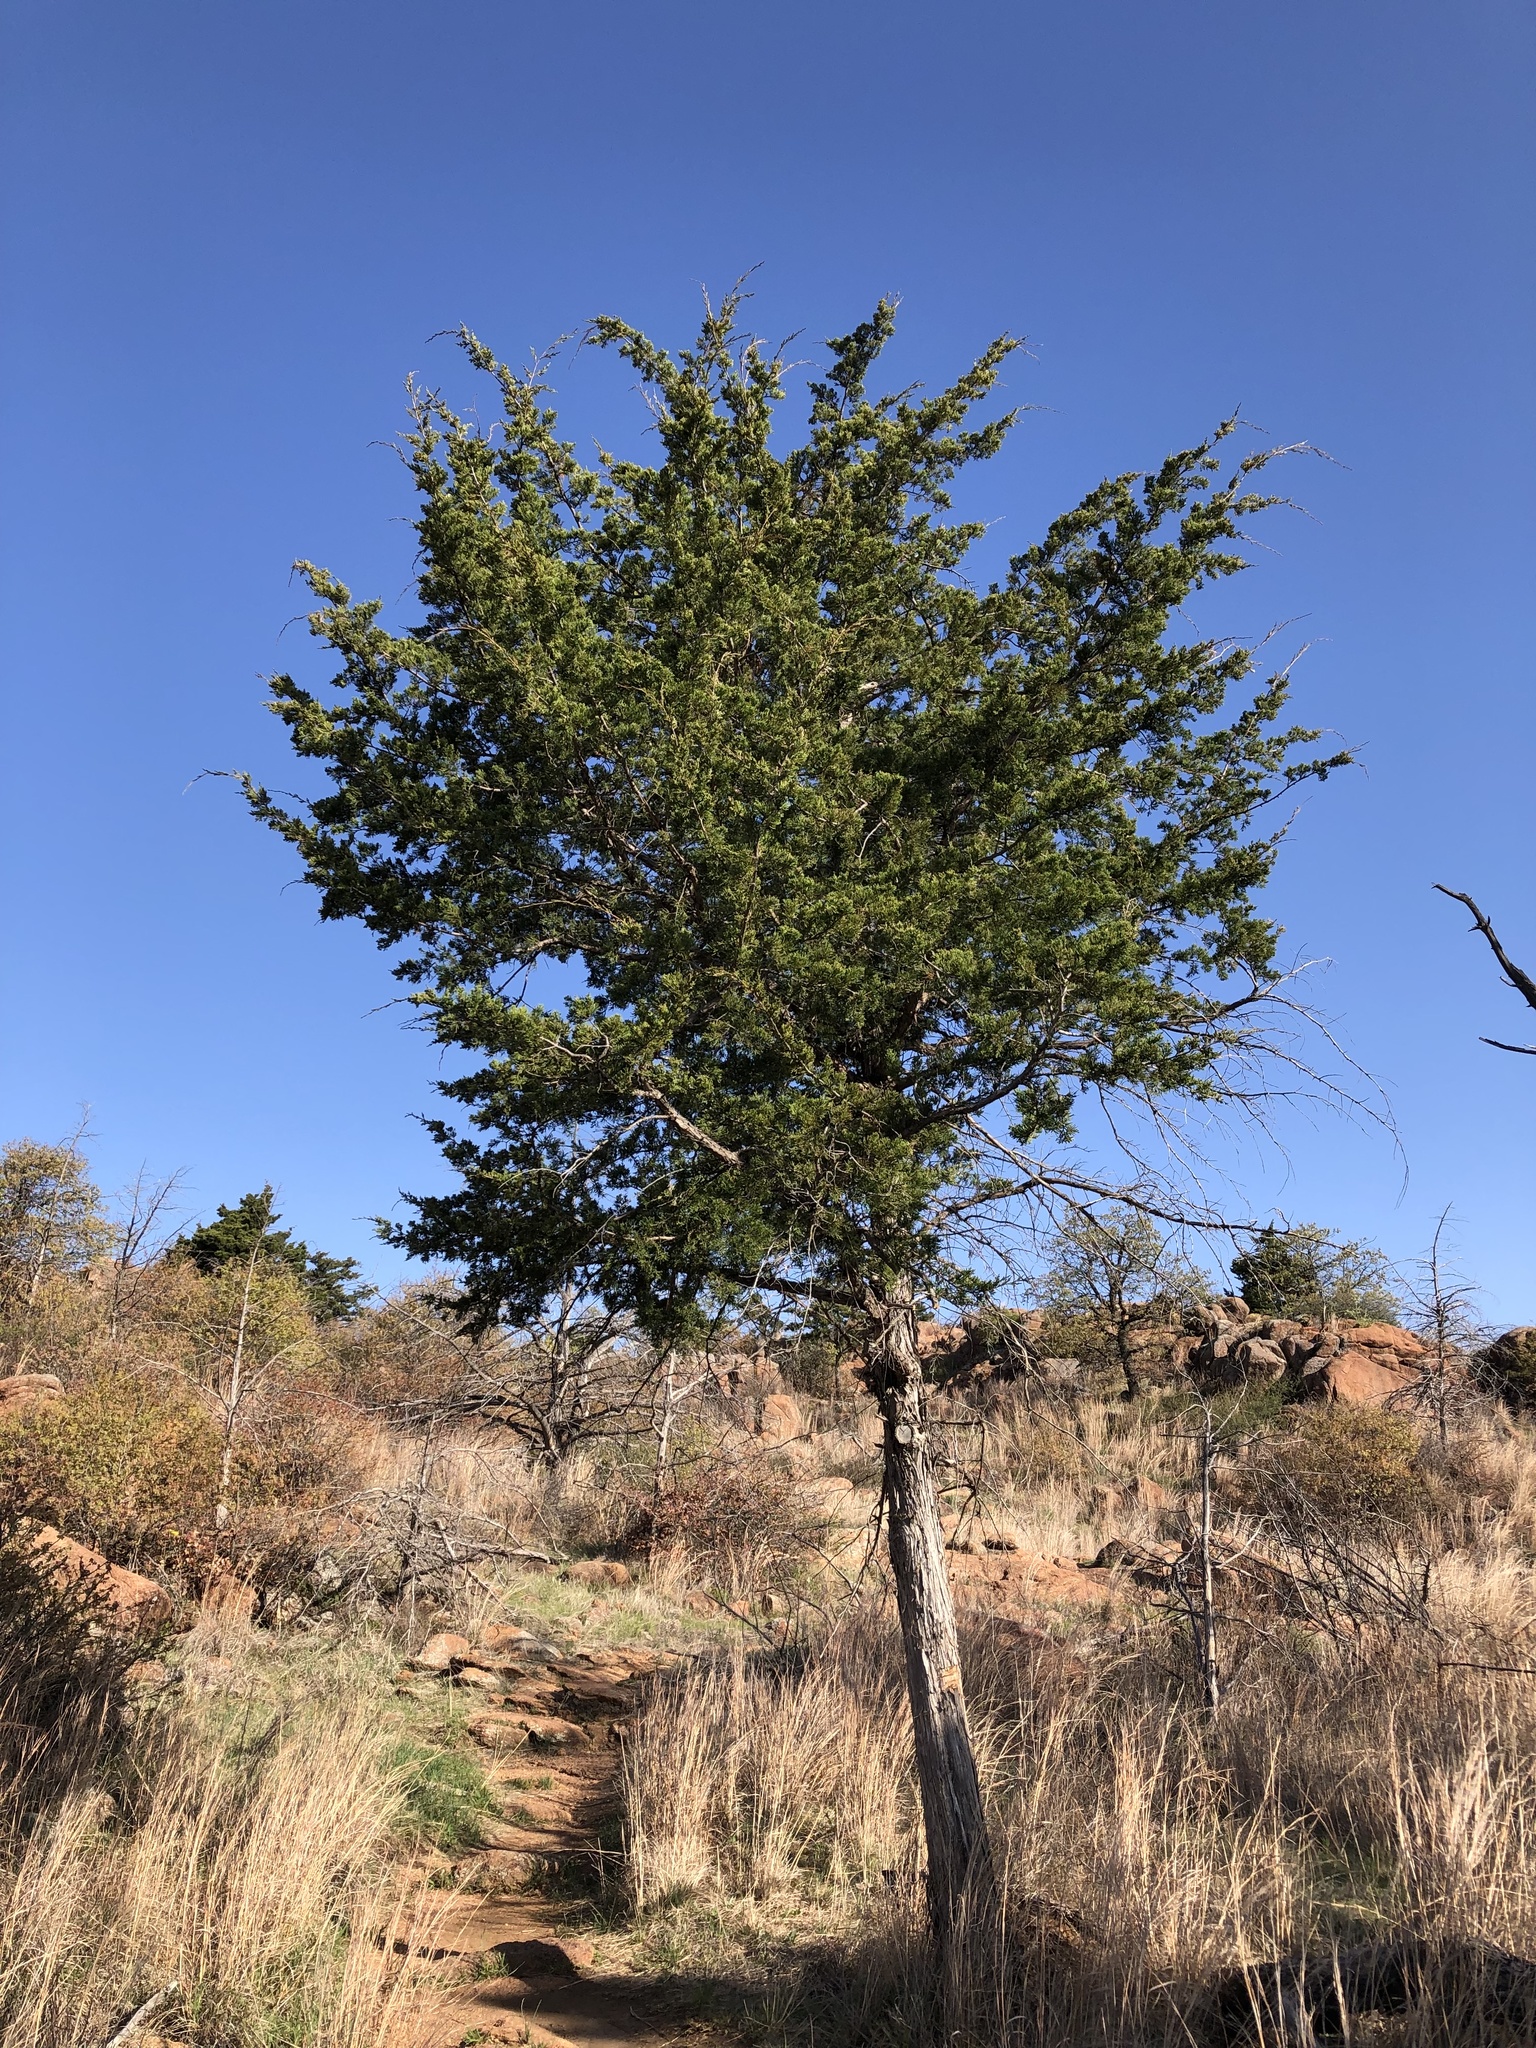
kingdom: Plantae
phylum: Tracheophyta
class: Pinopsida
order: Pinales
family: Cupressaceae
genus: Juniperus
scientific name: Juniperus virginiana
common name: Red juniper
